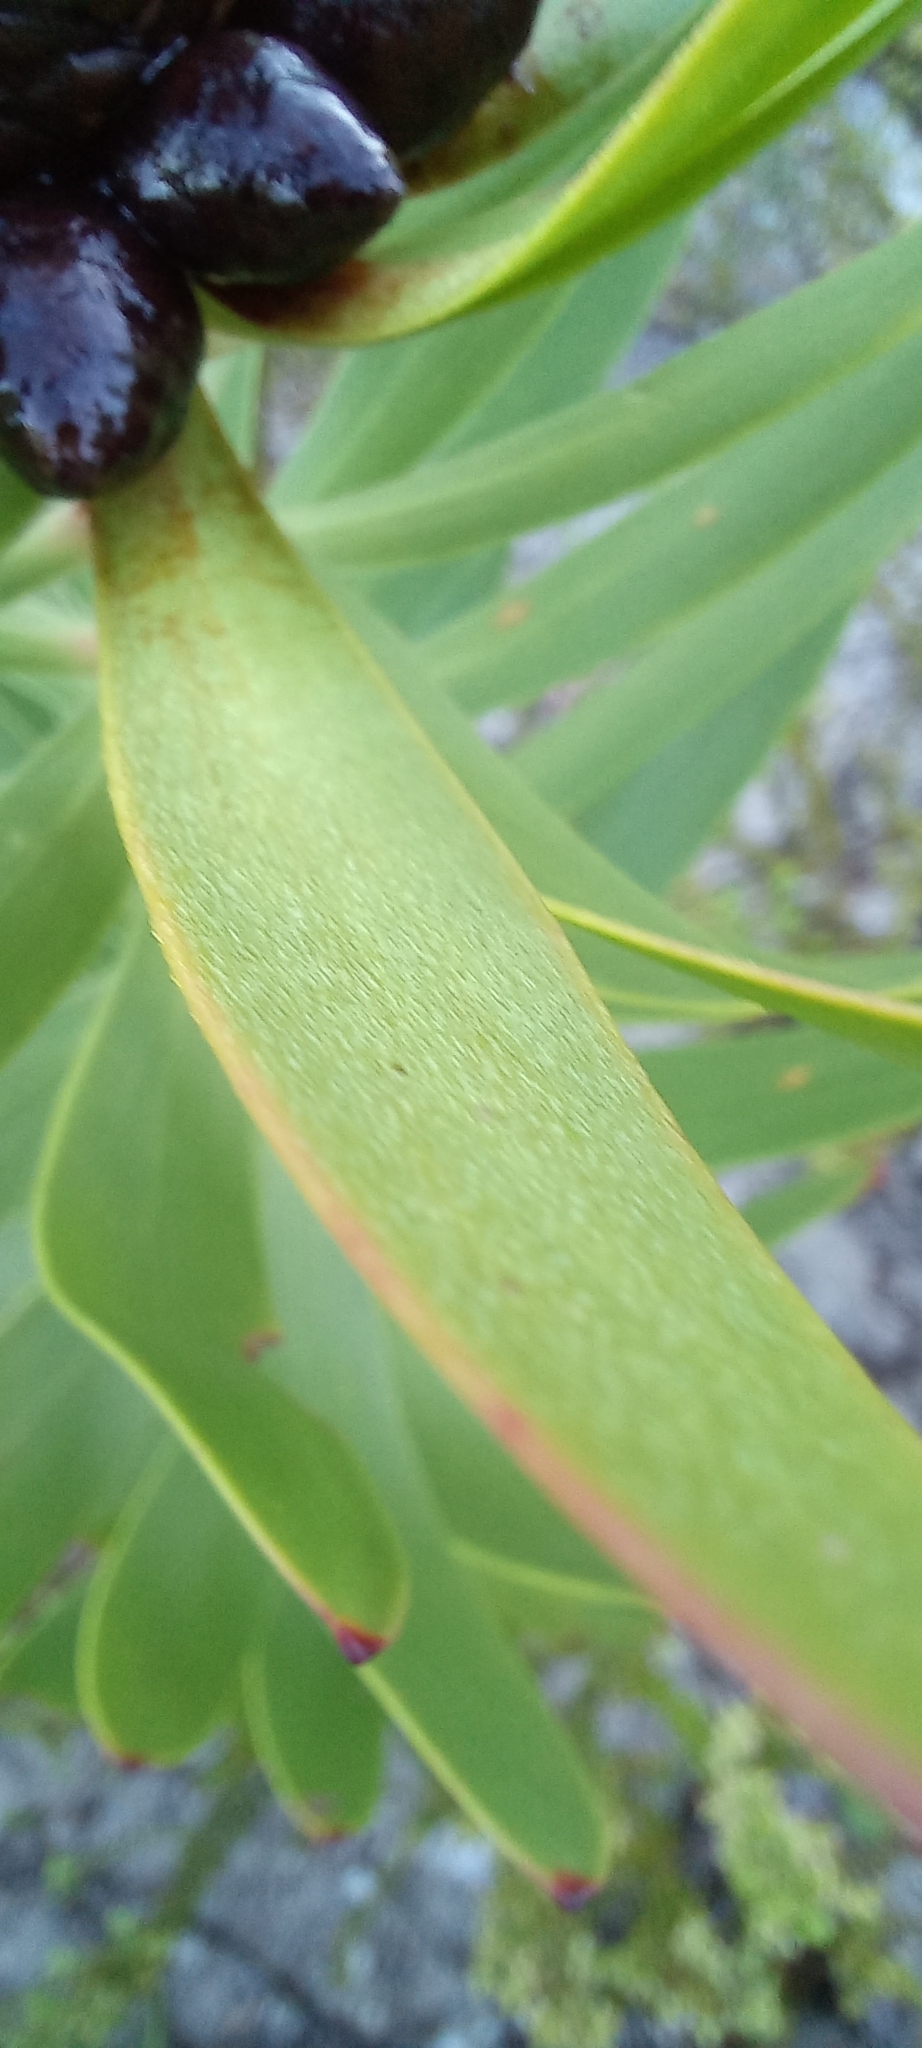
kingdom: Plantae
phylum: Tracheophyta
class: Magnoliopsida
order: Proteales
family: Proteaceae
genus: Leucadendron
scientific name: Leucadendron microcephalum
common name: Oilbract conebush
